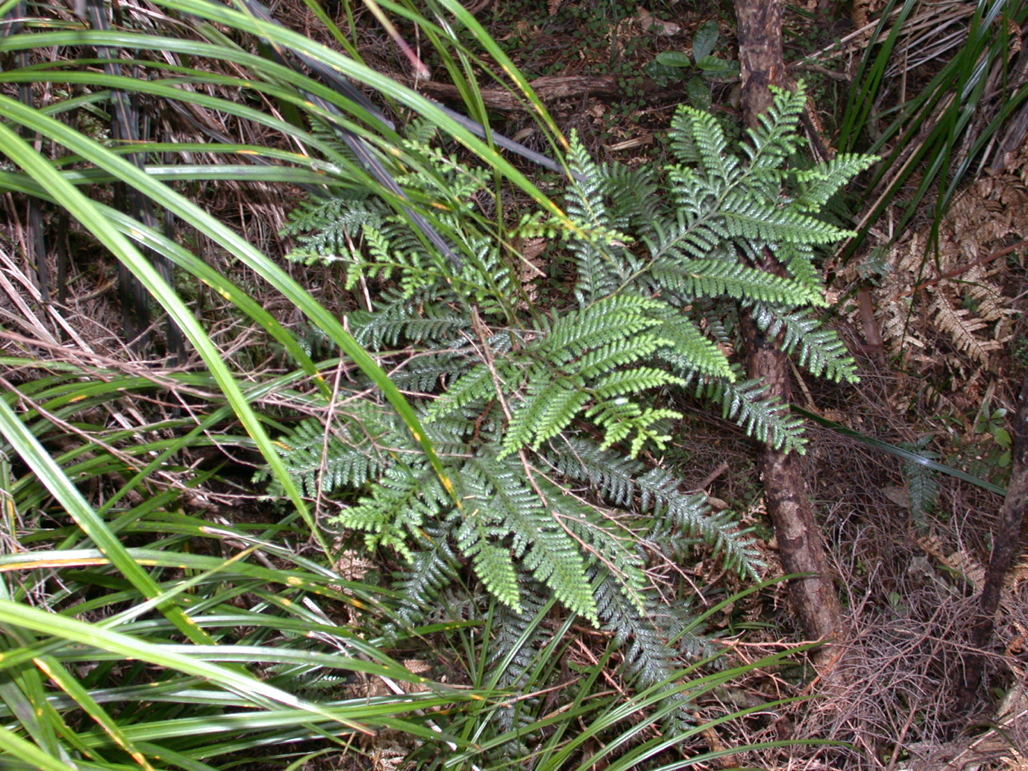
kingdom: Plantae
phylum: Tracheophyta
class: Pinopsida
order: Pinales
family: Cupressaceae
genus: Libocedrus
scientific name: Libocedrus plumosa
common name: New zealand cedar
